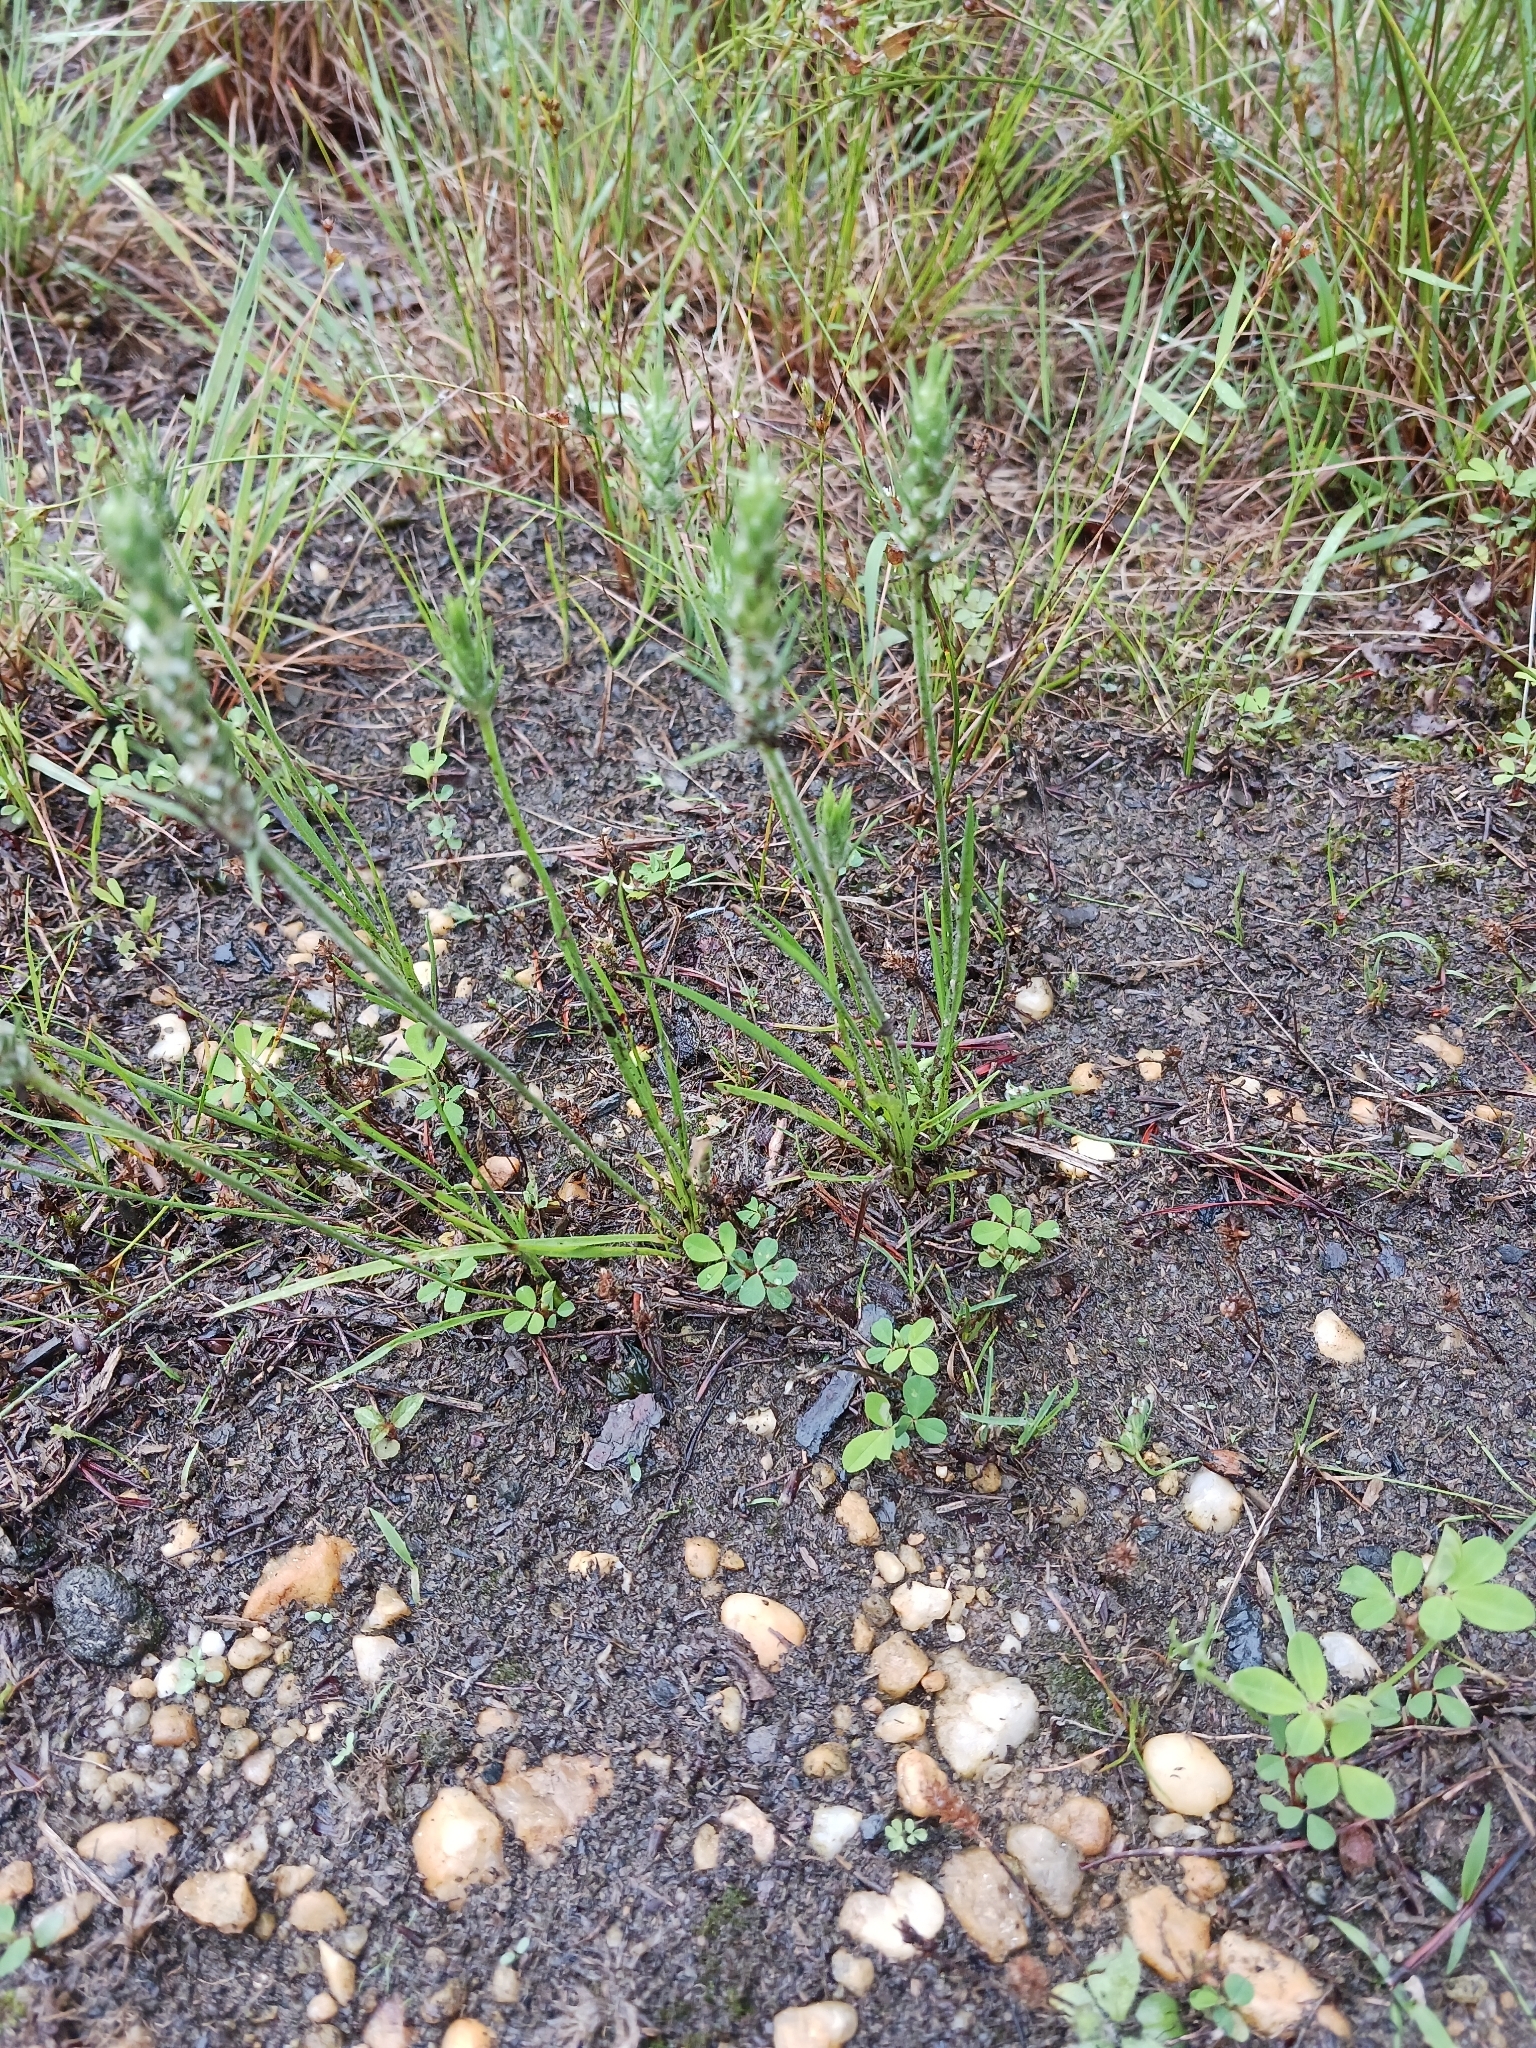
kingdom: Plantae
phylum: Tracheophyta
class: Magnoliopsida
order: Lamiales
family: Plantaginaceae
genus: Plantago
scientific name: Plantago aristata
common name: Bracted plantain
